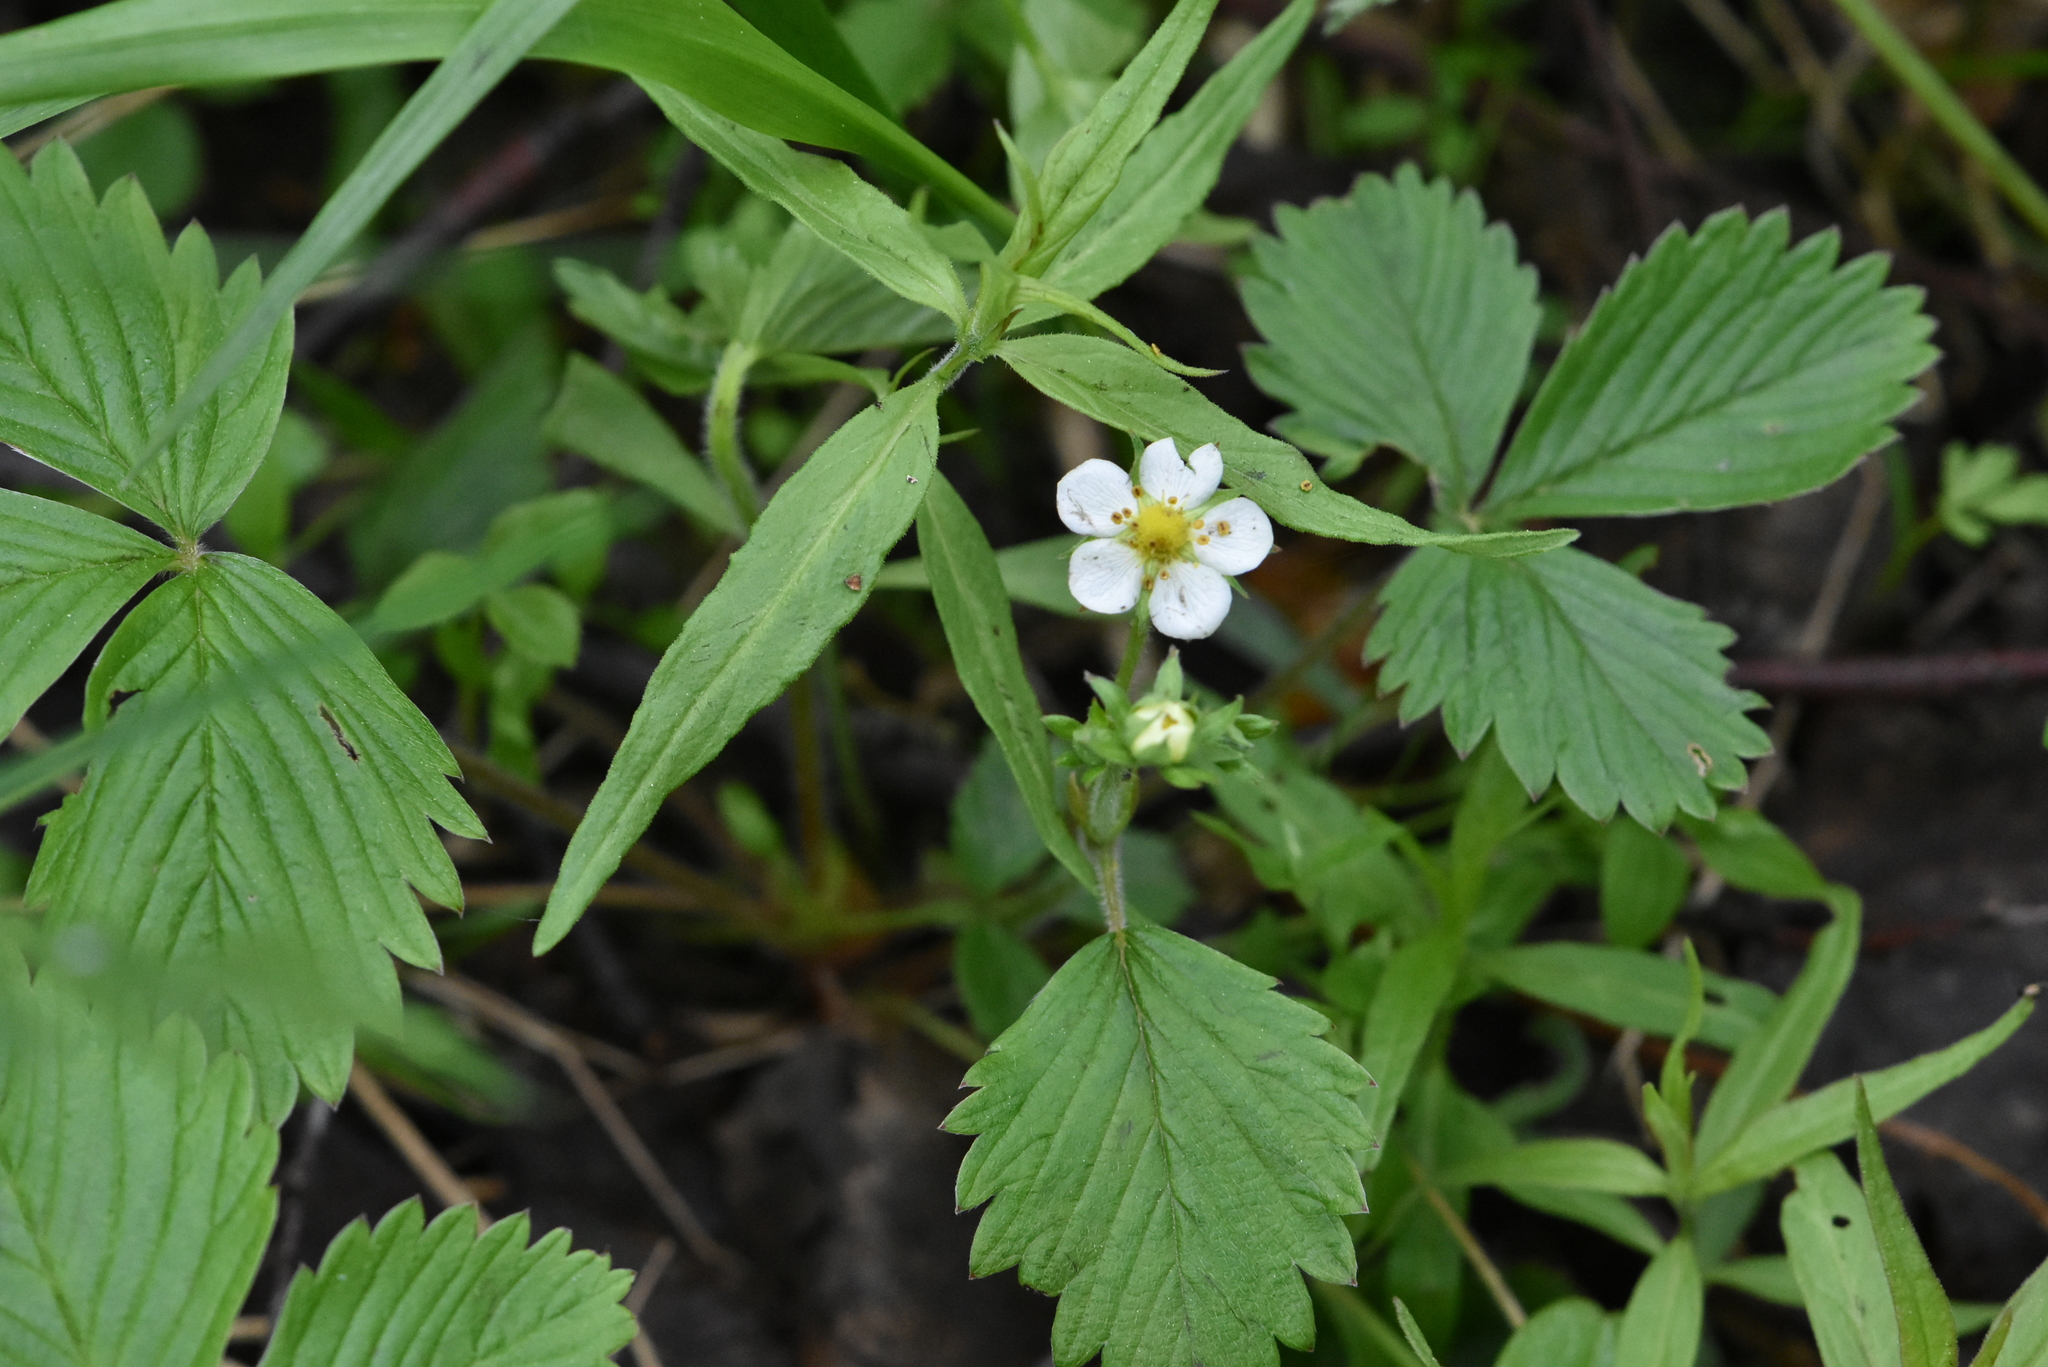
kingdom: Plantae
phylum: Tracheophyta
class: Magnoliopsida
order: Rosales
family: Rosaceae
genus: Fragaria
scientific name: Fragaria vesca
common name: Wild strawberry
